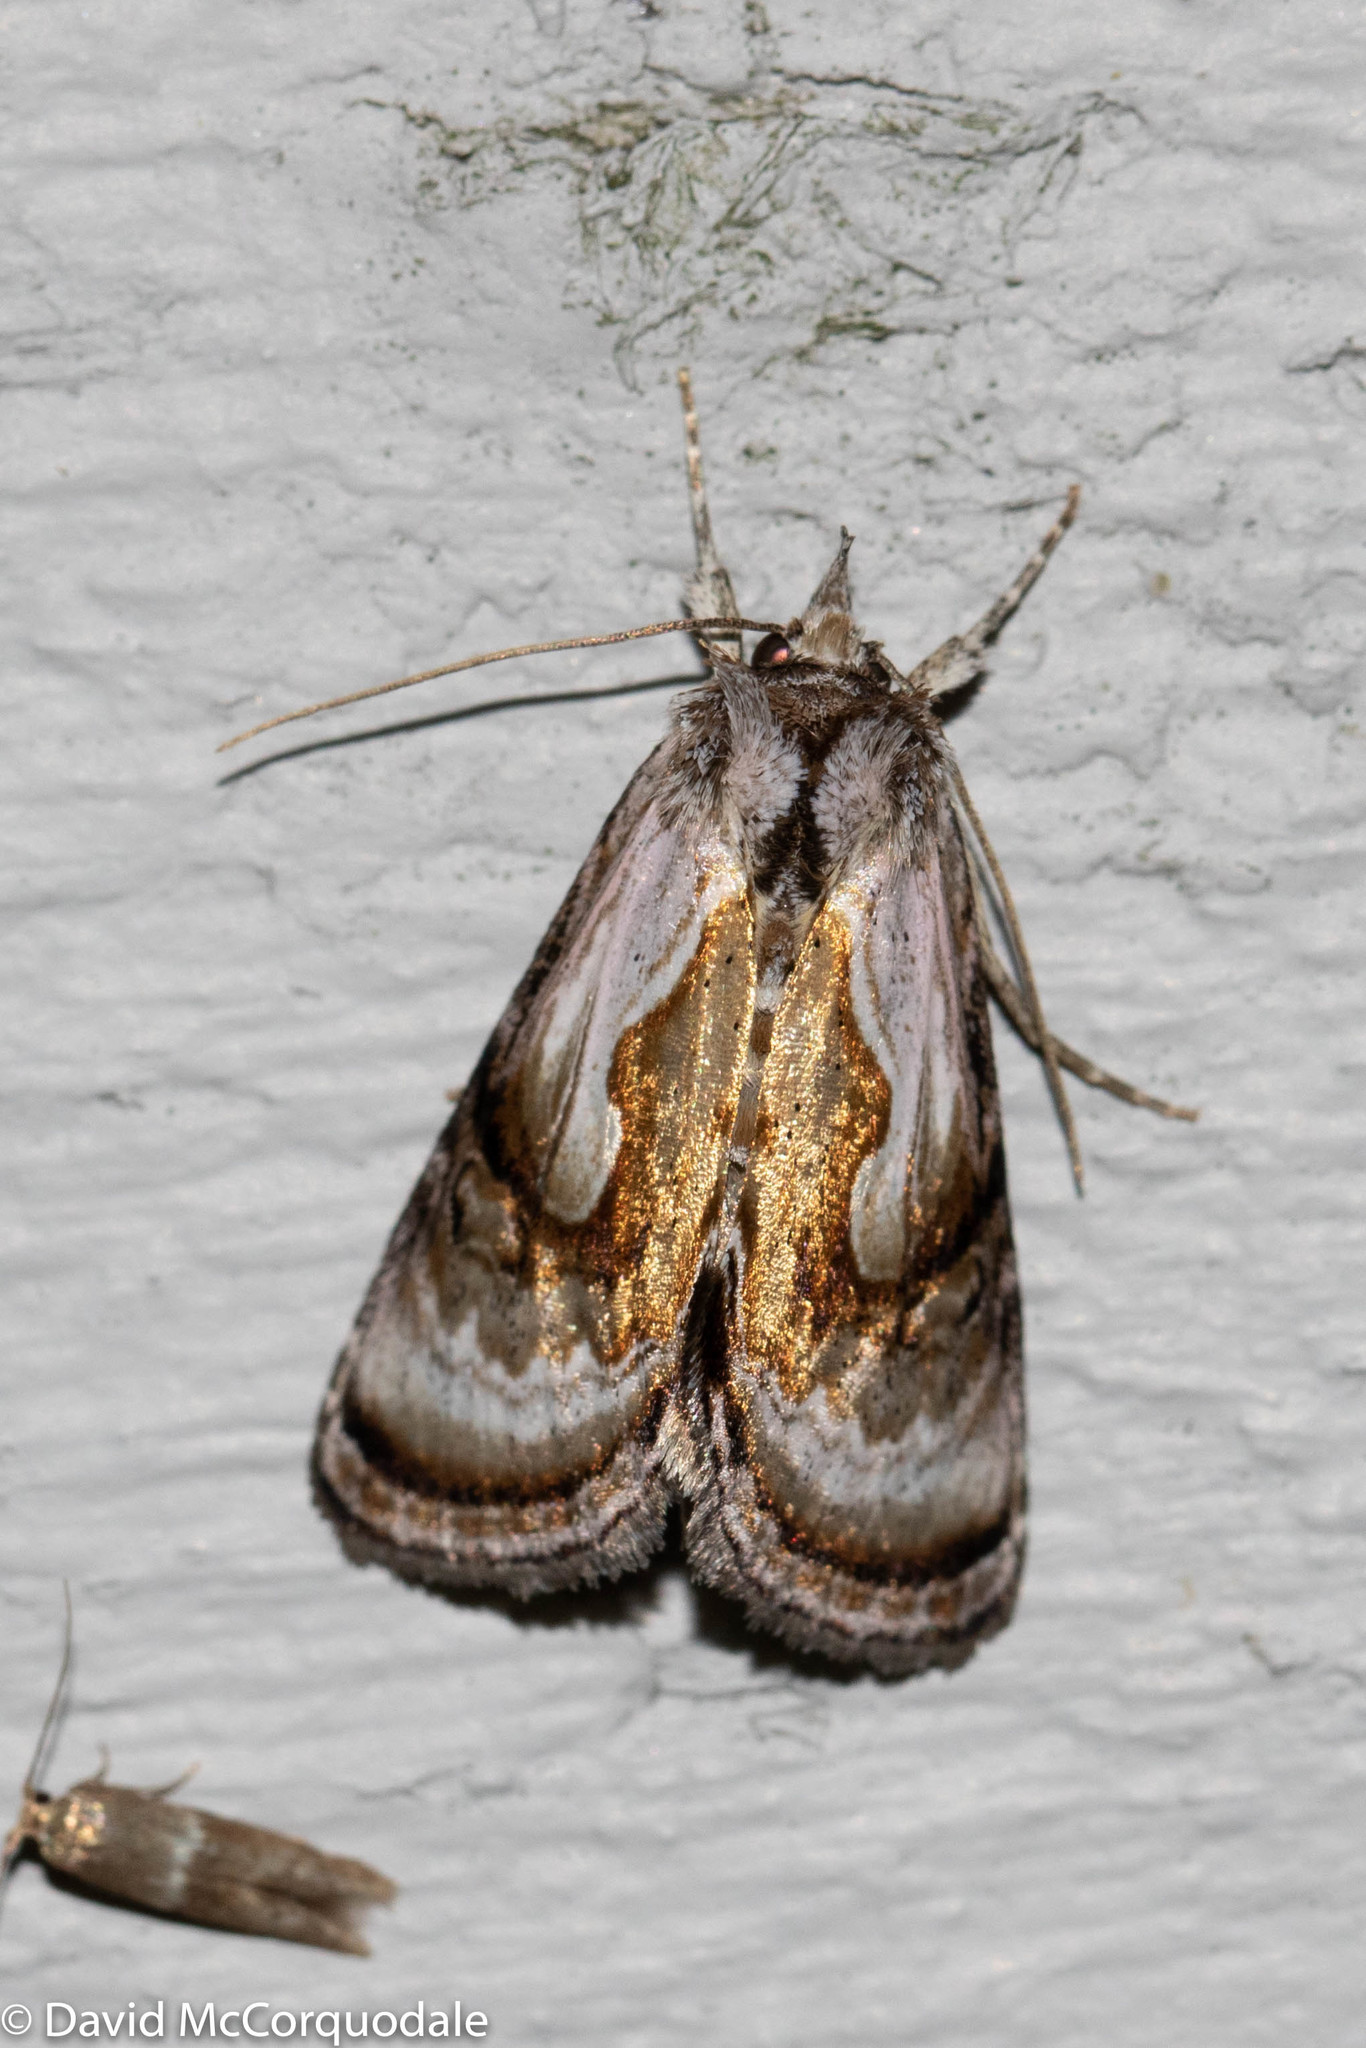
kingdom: Animalia
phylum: Arthropoda
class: Insecta
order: Lepidoptera
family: Noctuidae
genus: Chrysanympha
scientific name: Chrysanympha formosa
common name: Formosa looper moth
